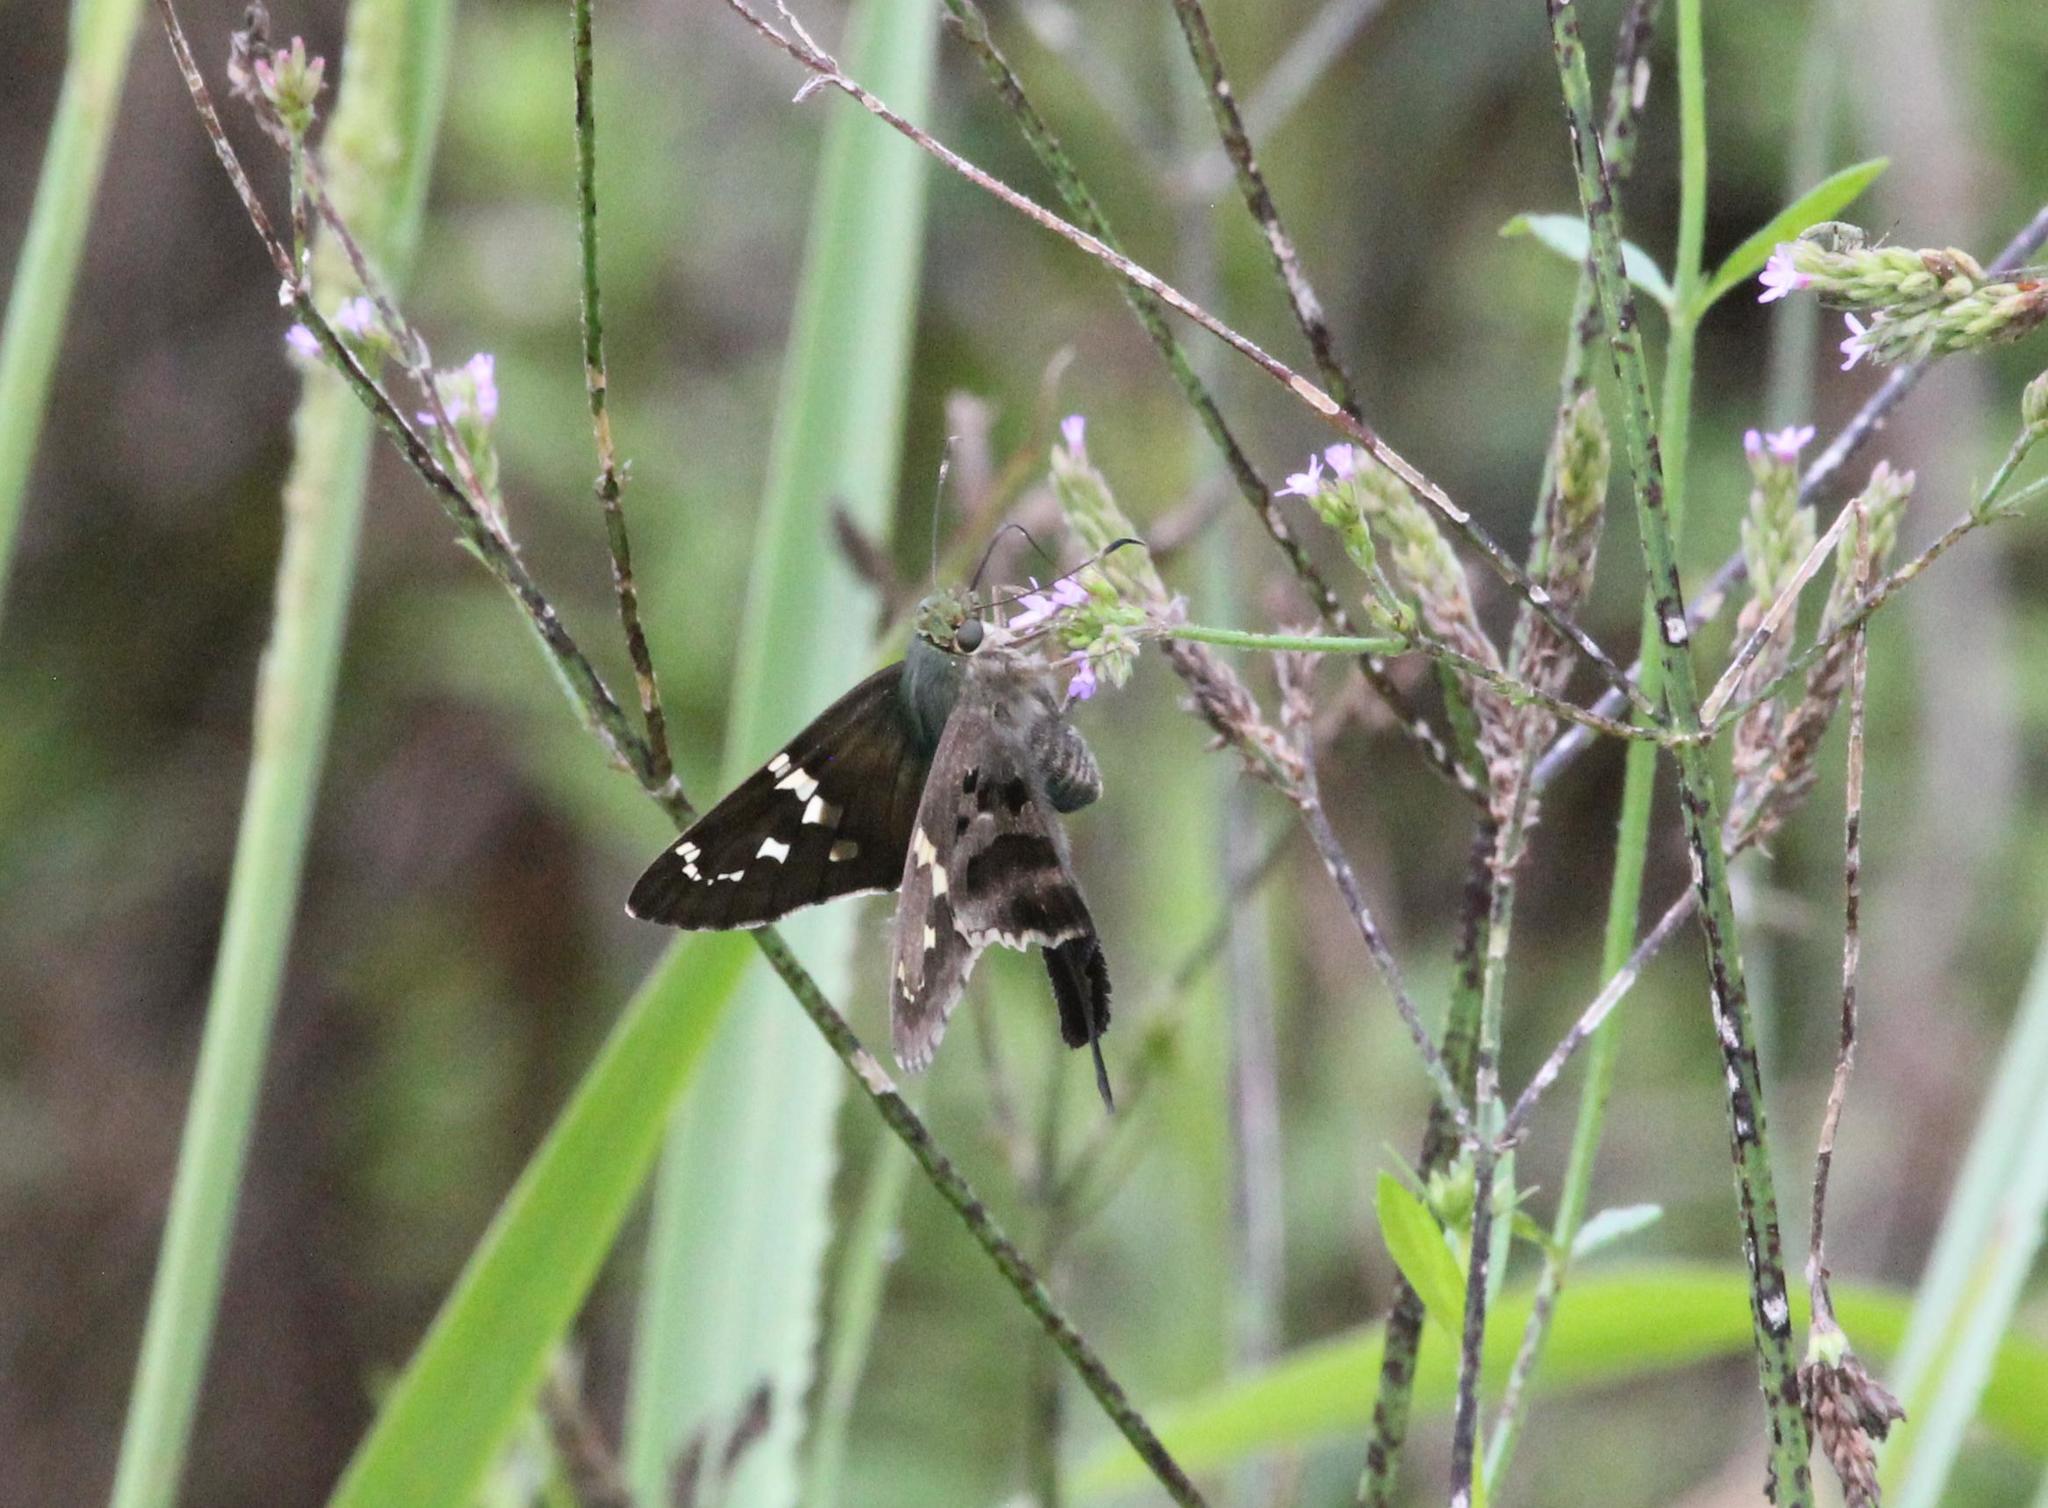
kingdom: Animalia
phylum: Arthropoda
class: Insecta
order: Lepidoptera
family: Hesperiidae
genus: Urbanus
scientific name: Urbanus proteus
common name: Long-tailed skipper
